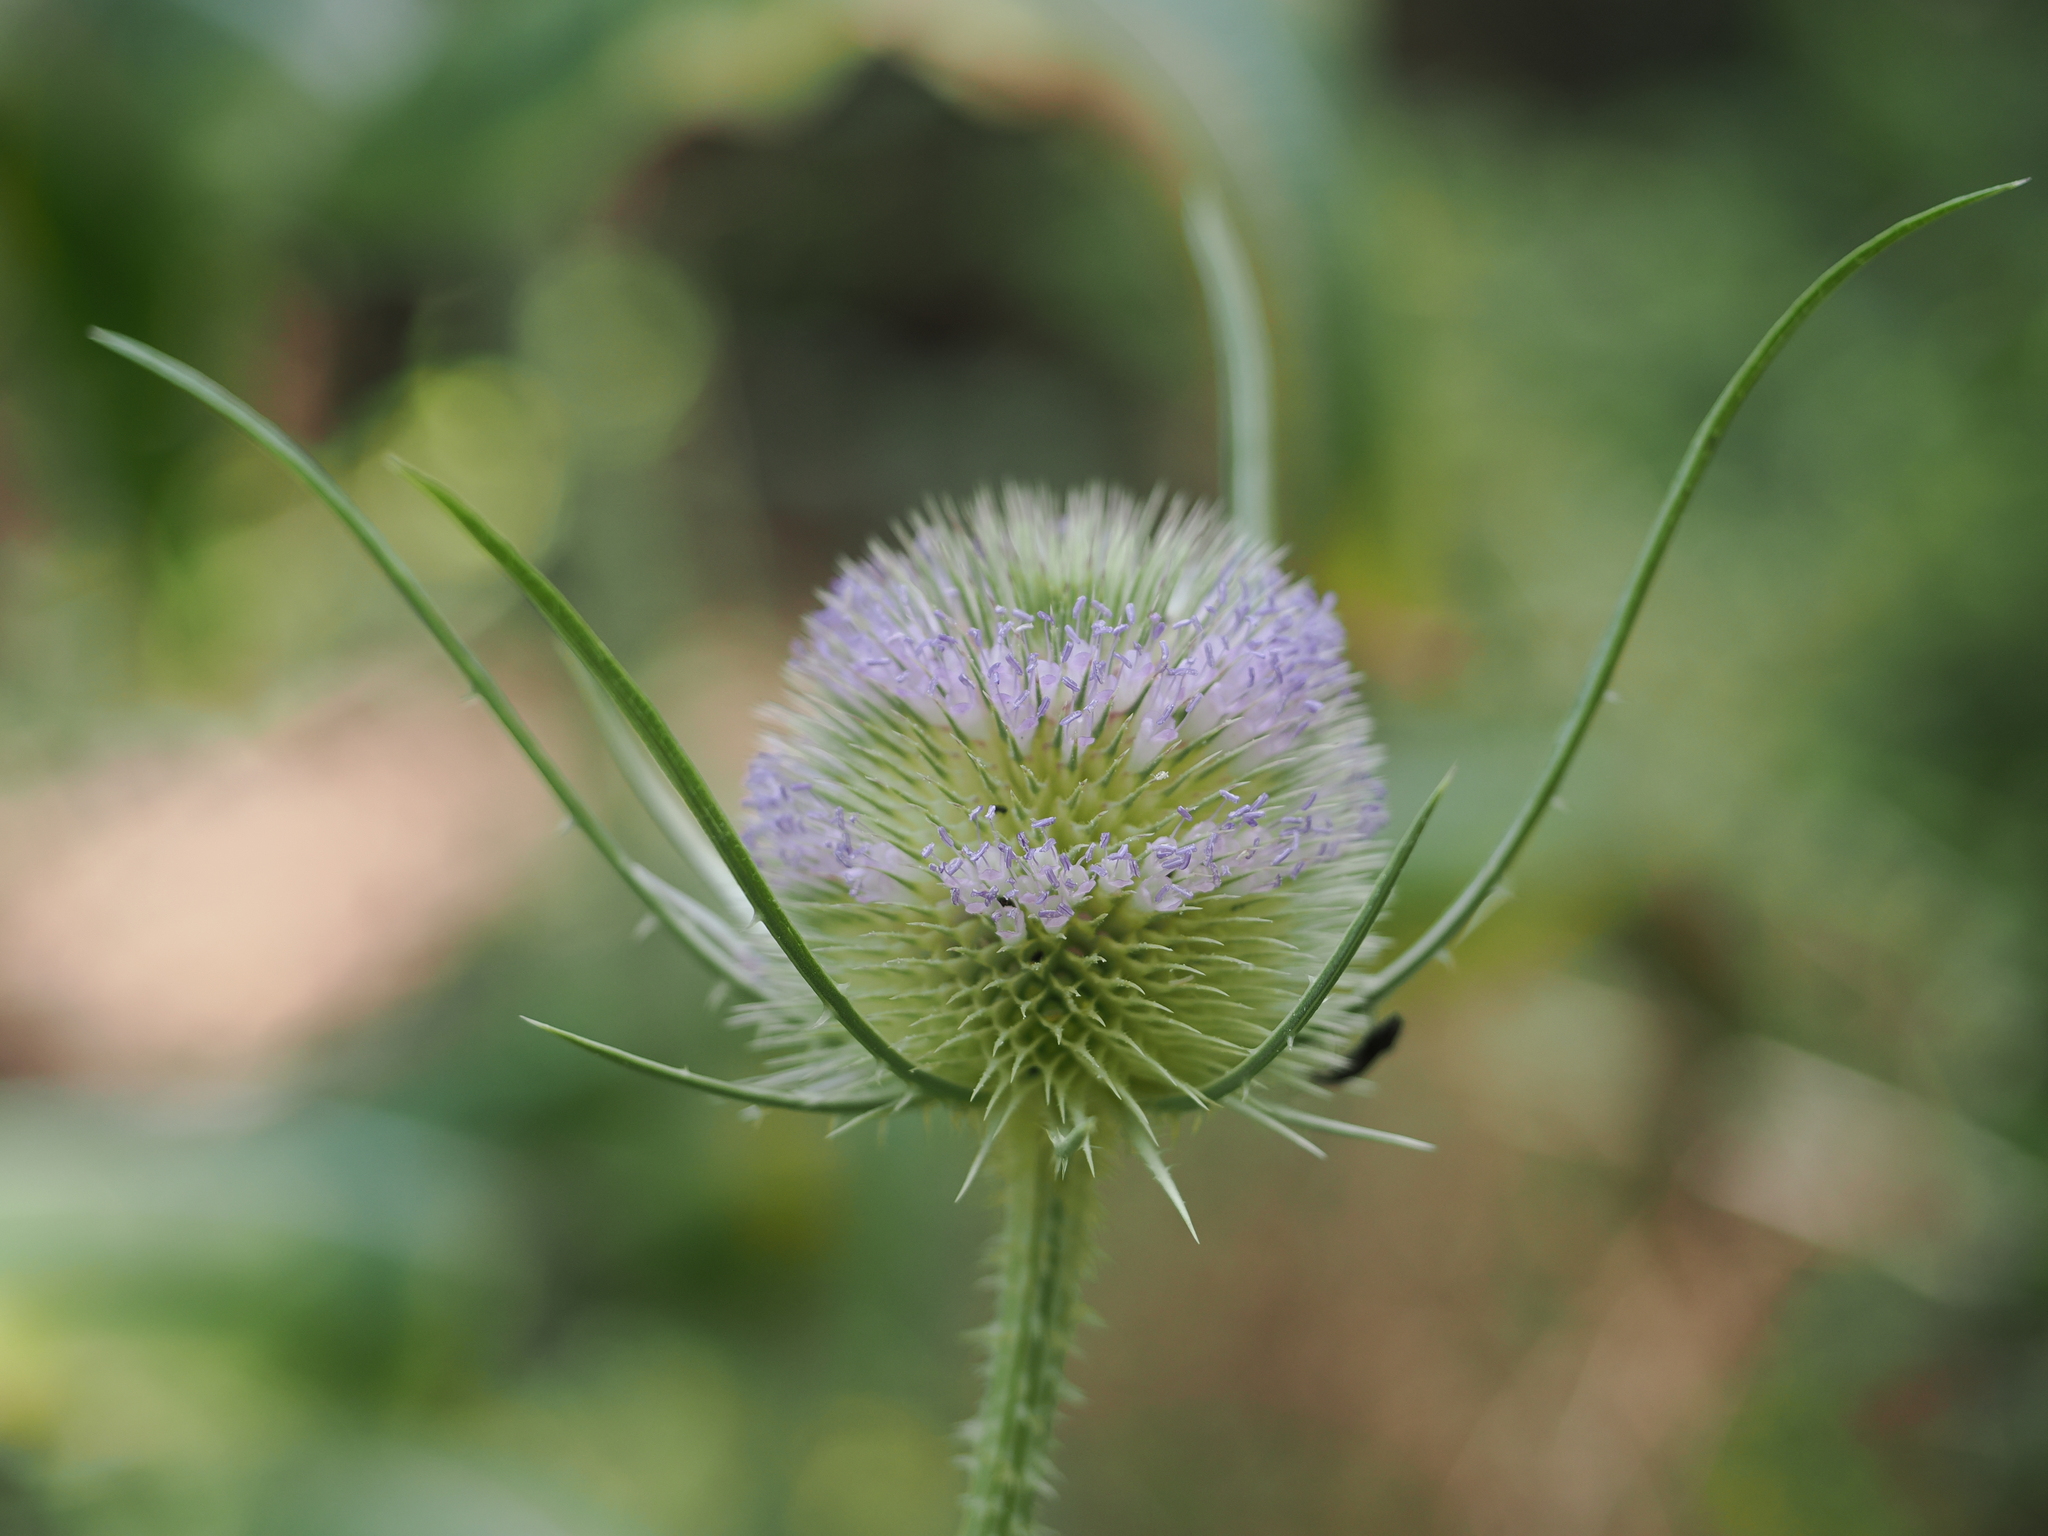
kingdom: Plantae
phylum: Tracheophyta
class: Magnoliopsida
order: Dipsacales
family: Caprifoliaceae
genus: Dipsacus
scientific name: Dipsacus fullonum
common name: Teasel
